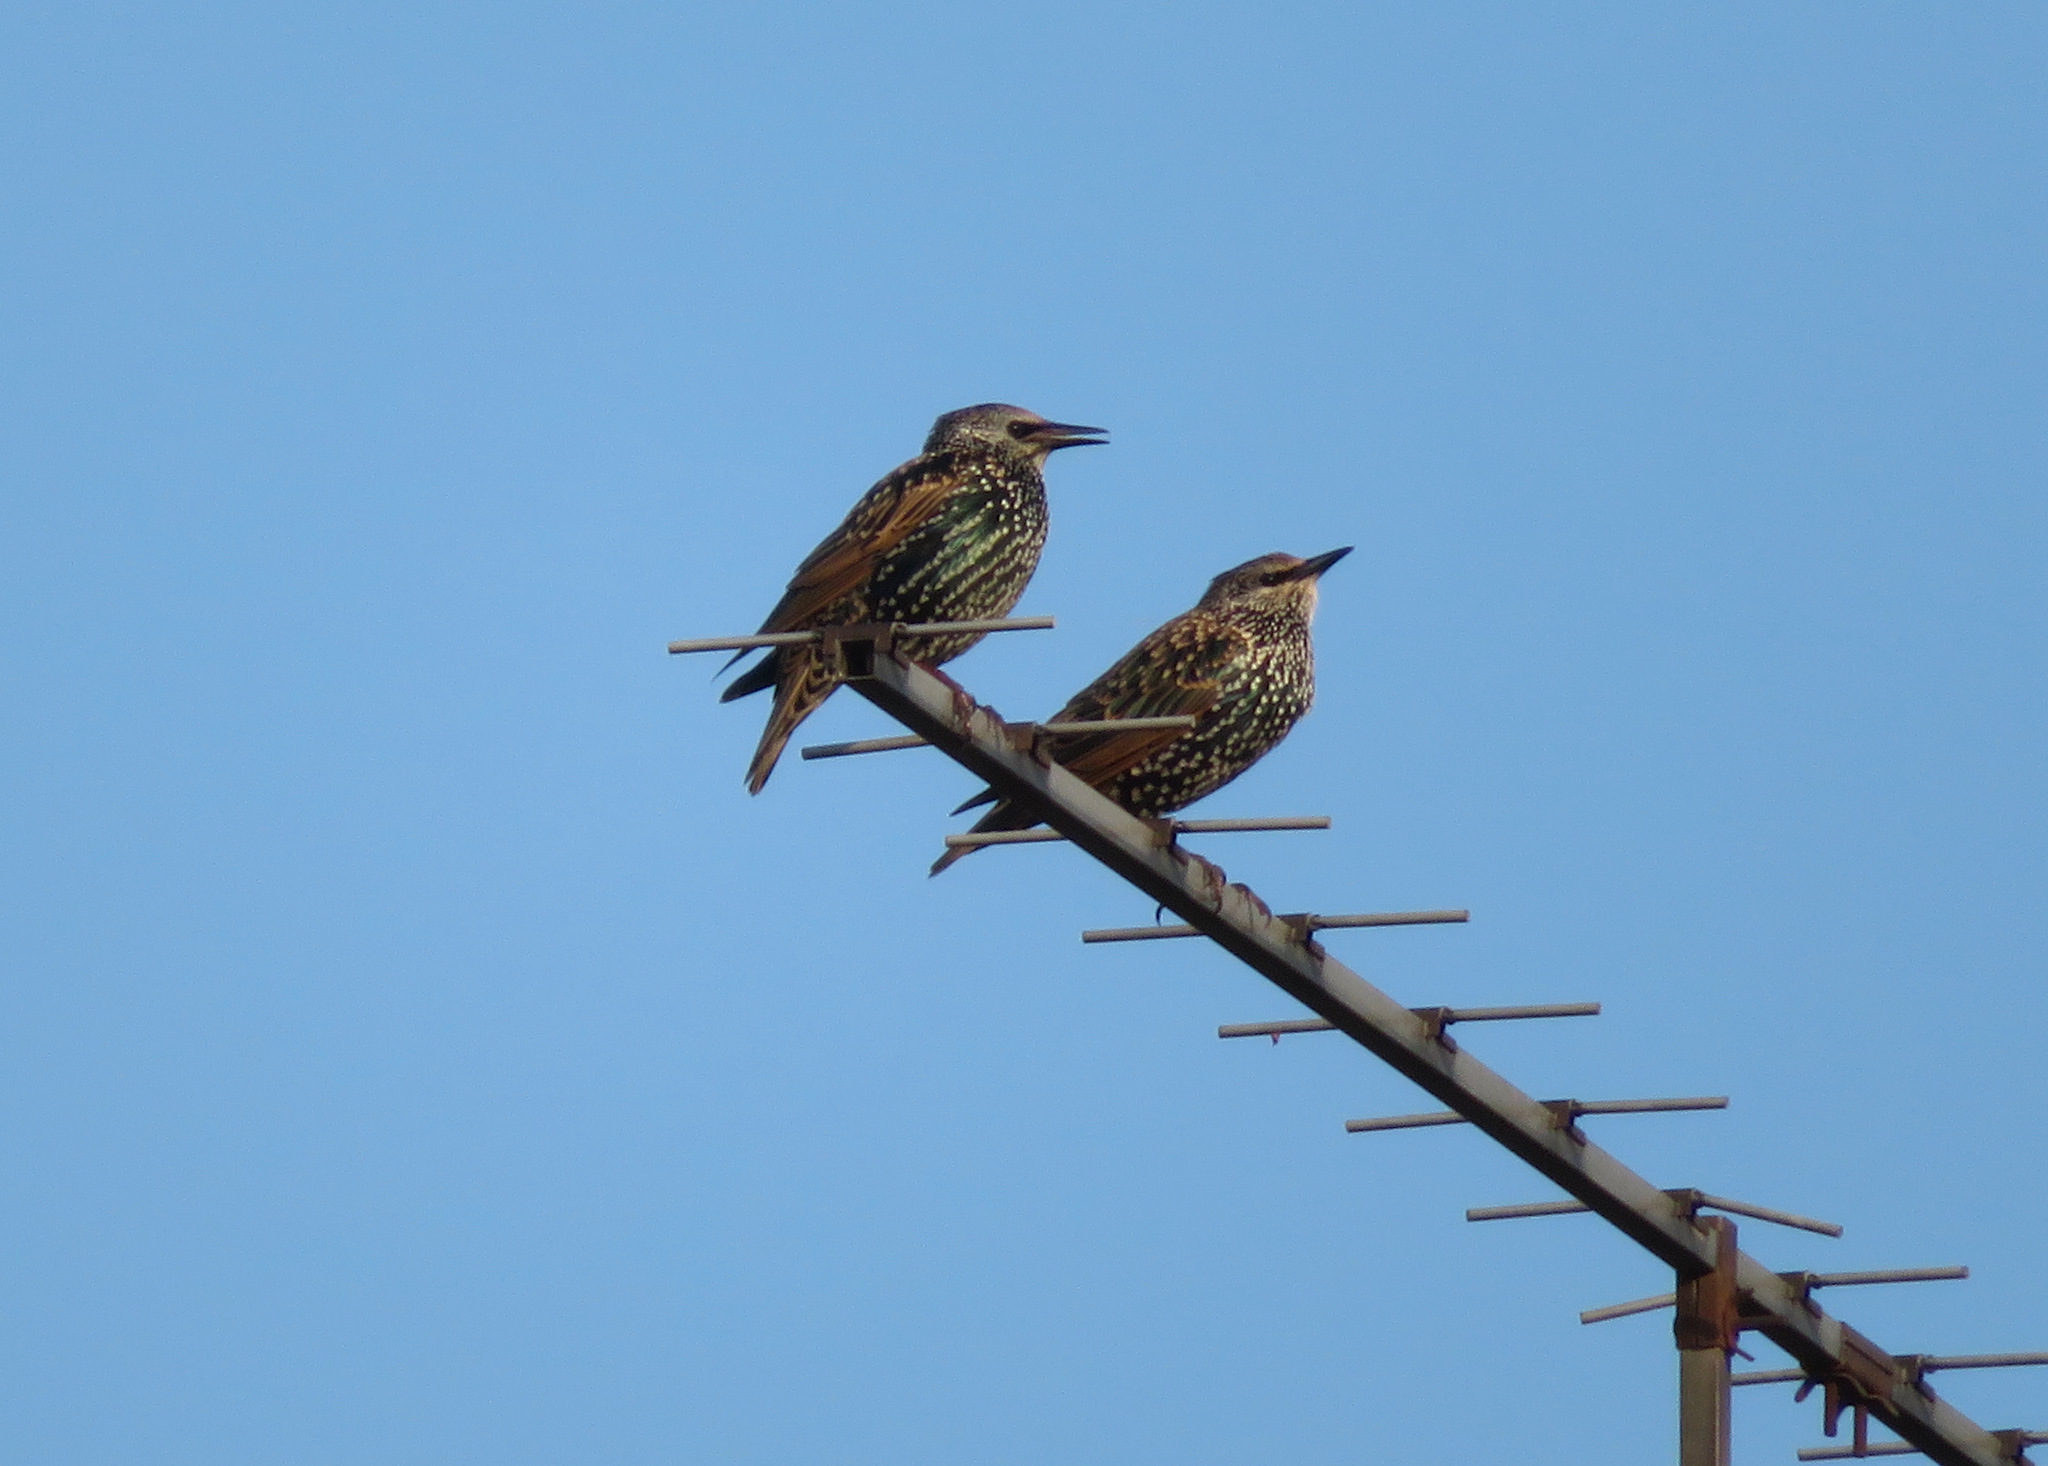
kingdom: Animalia
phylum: Chordata
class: Aves
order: Passeriformes
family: Sturnidae
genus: Sturnus
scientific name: Sturnus vulgaris
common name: Common starling
